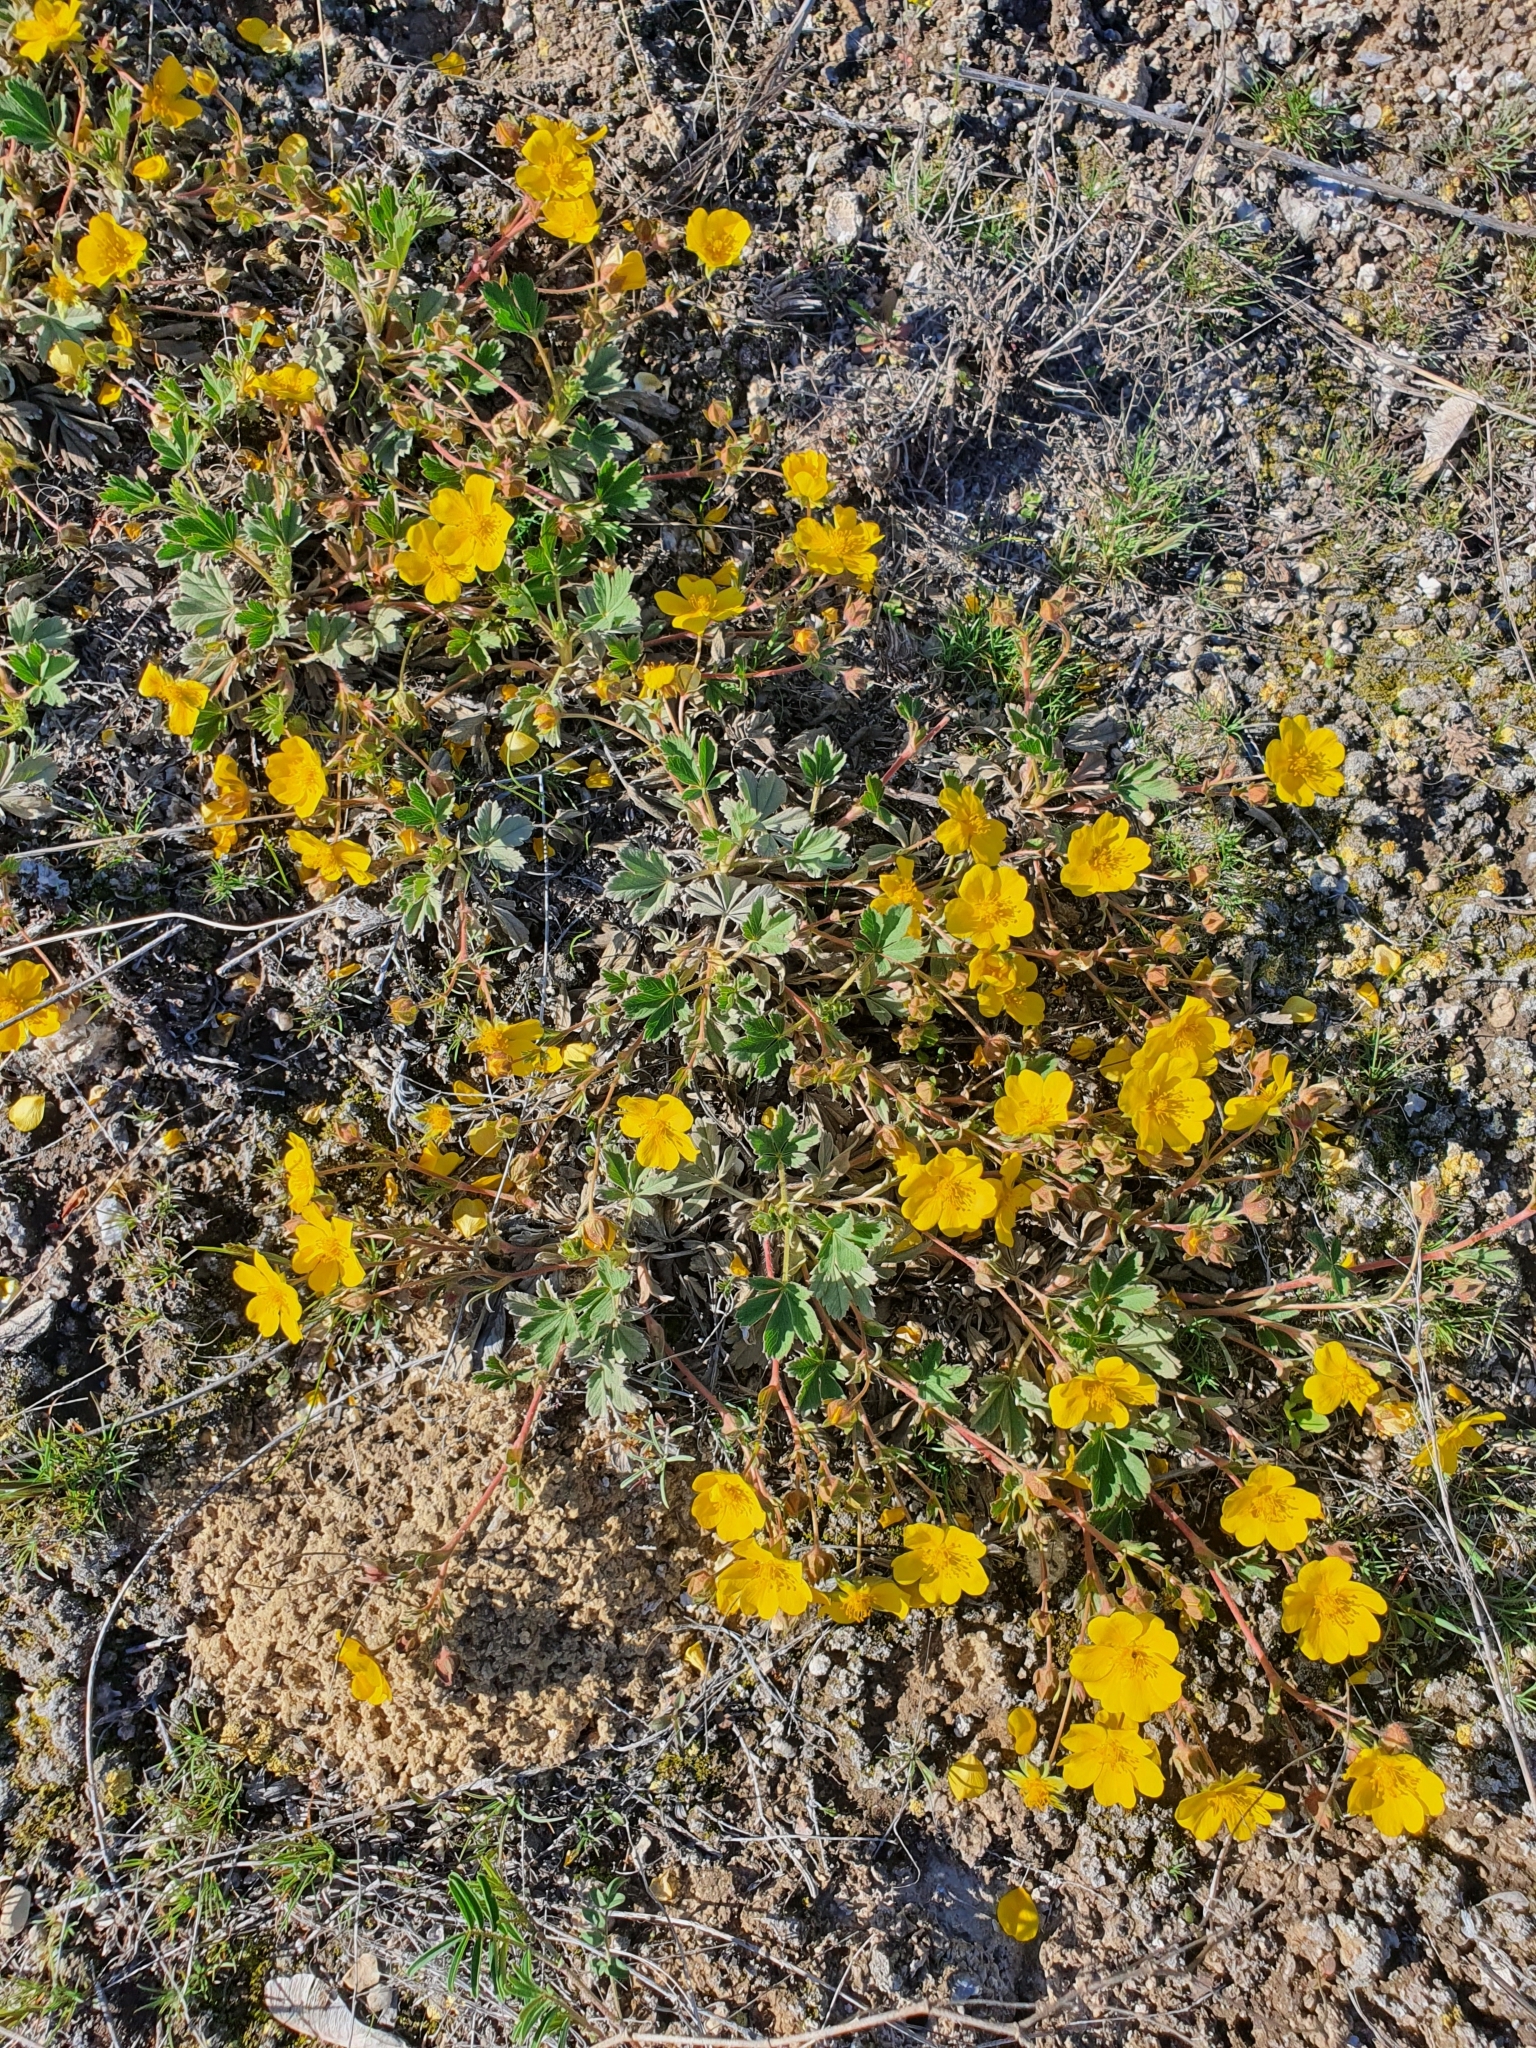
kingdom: Plantae
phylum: Tracheophyta
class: Magnoliopsida
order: Rosales
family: Rosaceae
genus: Potentilla
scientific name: Potentilla incana
